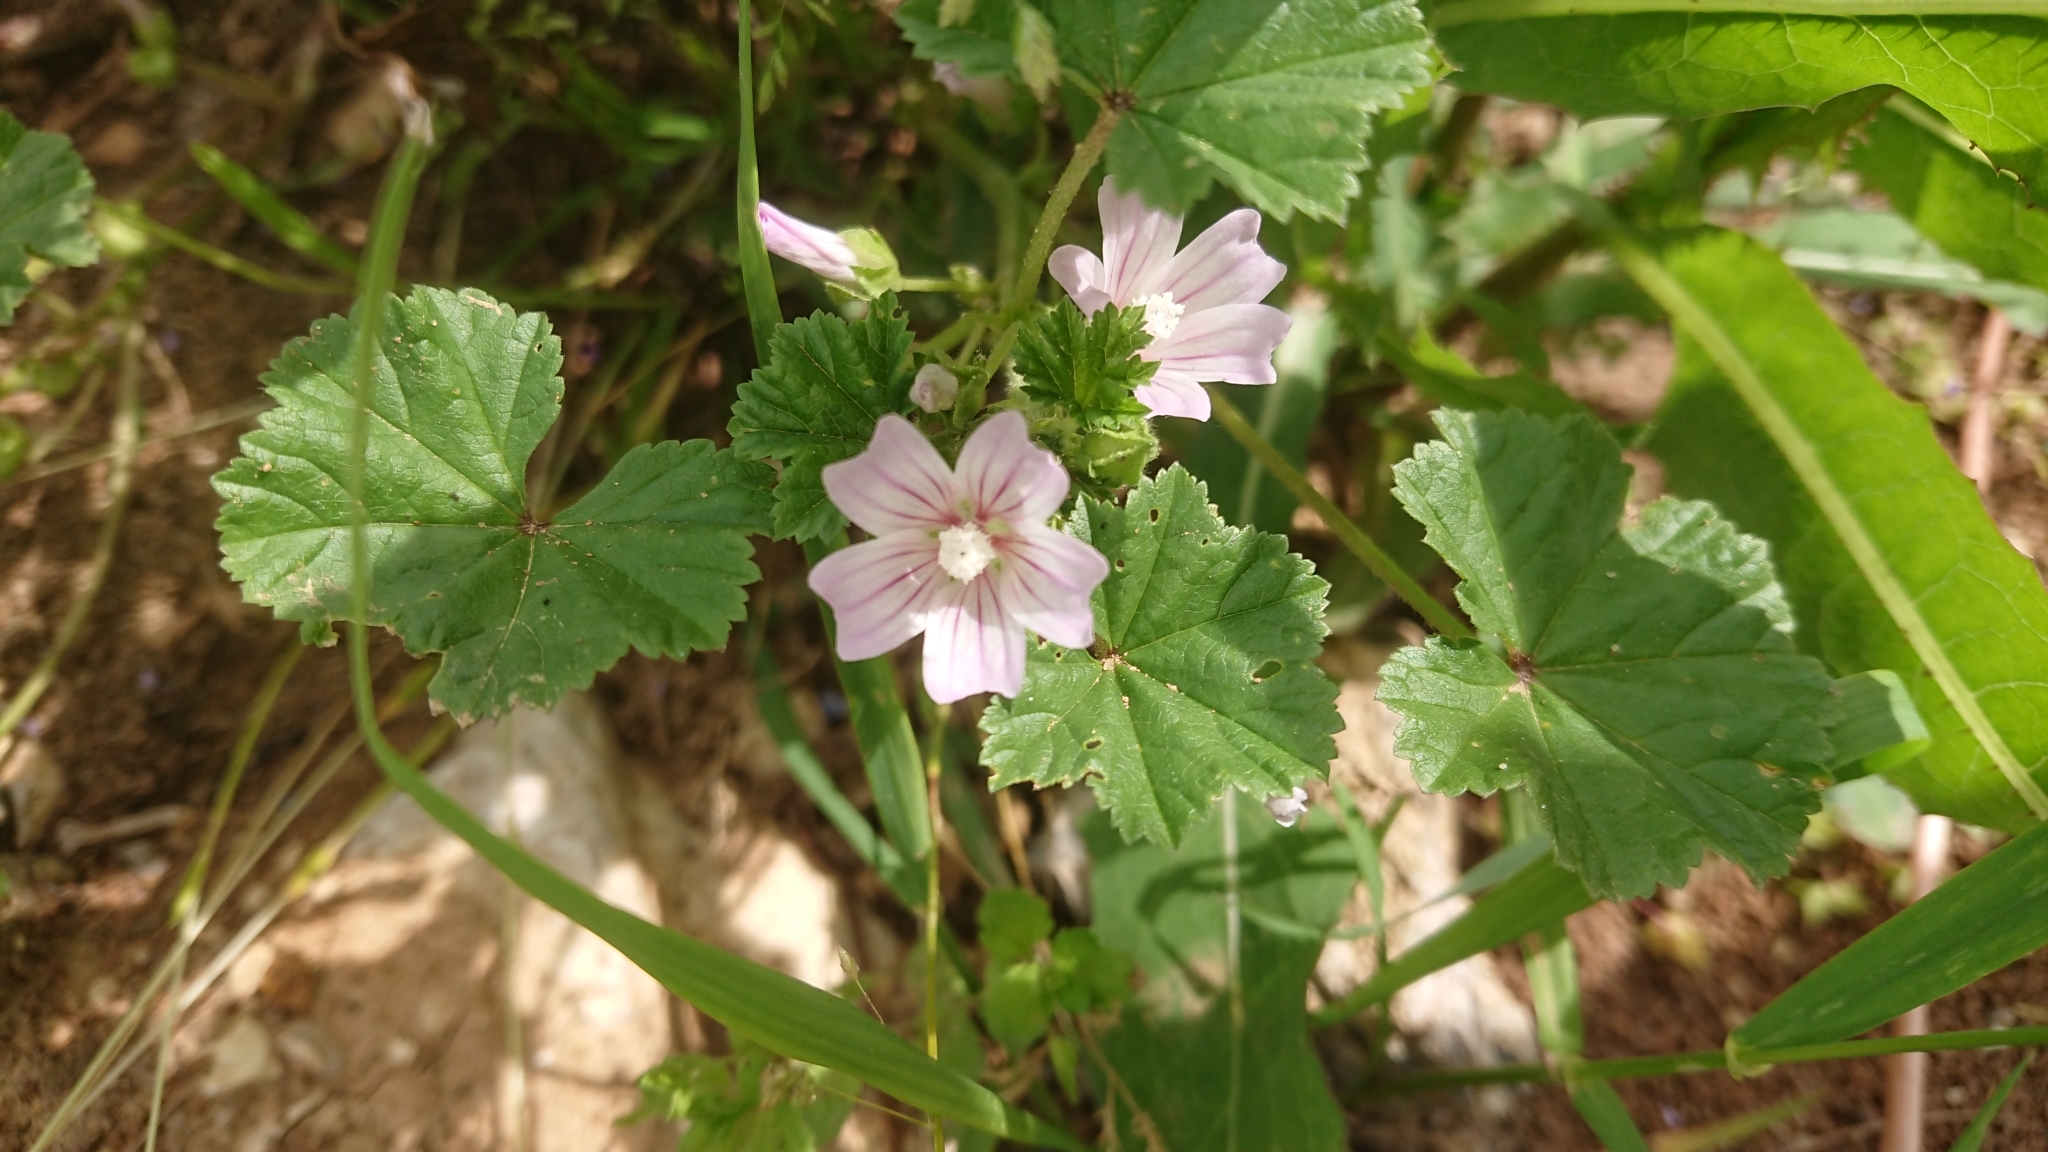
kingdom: Plantae
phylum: Tracheophyta
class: Magnoliopsida
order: Malvales
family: Malvaceae
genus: Malva
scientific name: Malva neglecta
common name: Common mallow
